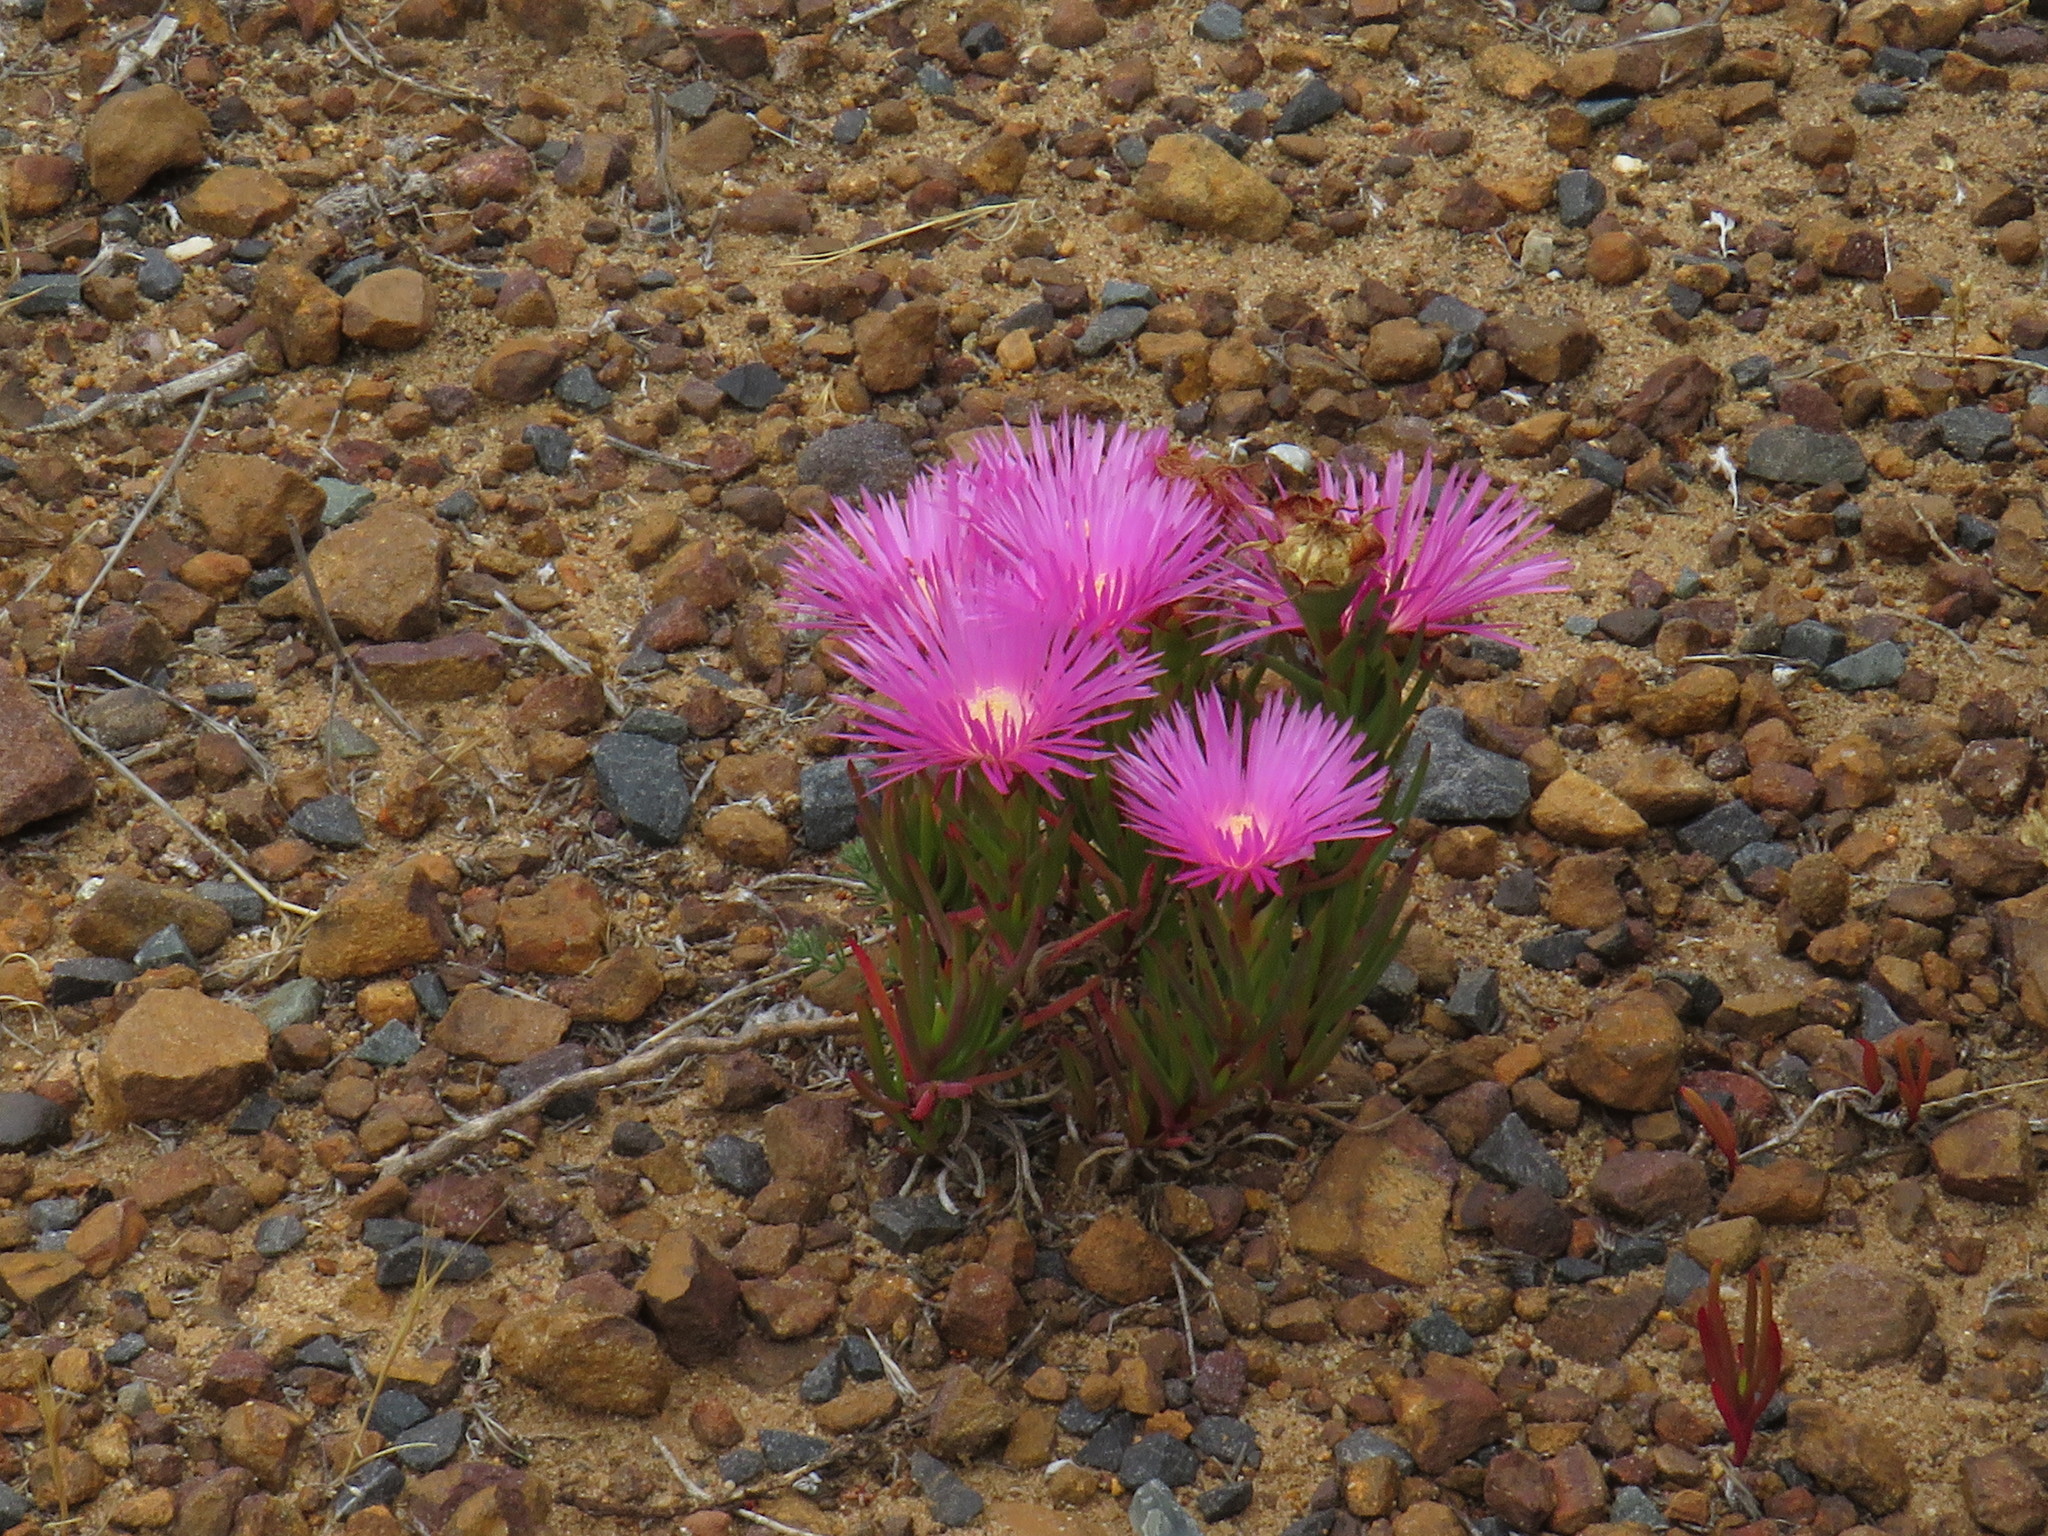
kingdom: Plantae
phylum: Tracheophyta
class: Magnoliopsida
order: Caryophyllales
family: Aizoaceae
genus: Lampranthus
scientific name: Lampranthus tenuifolius
